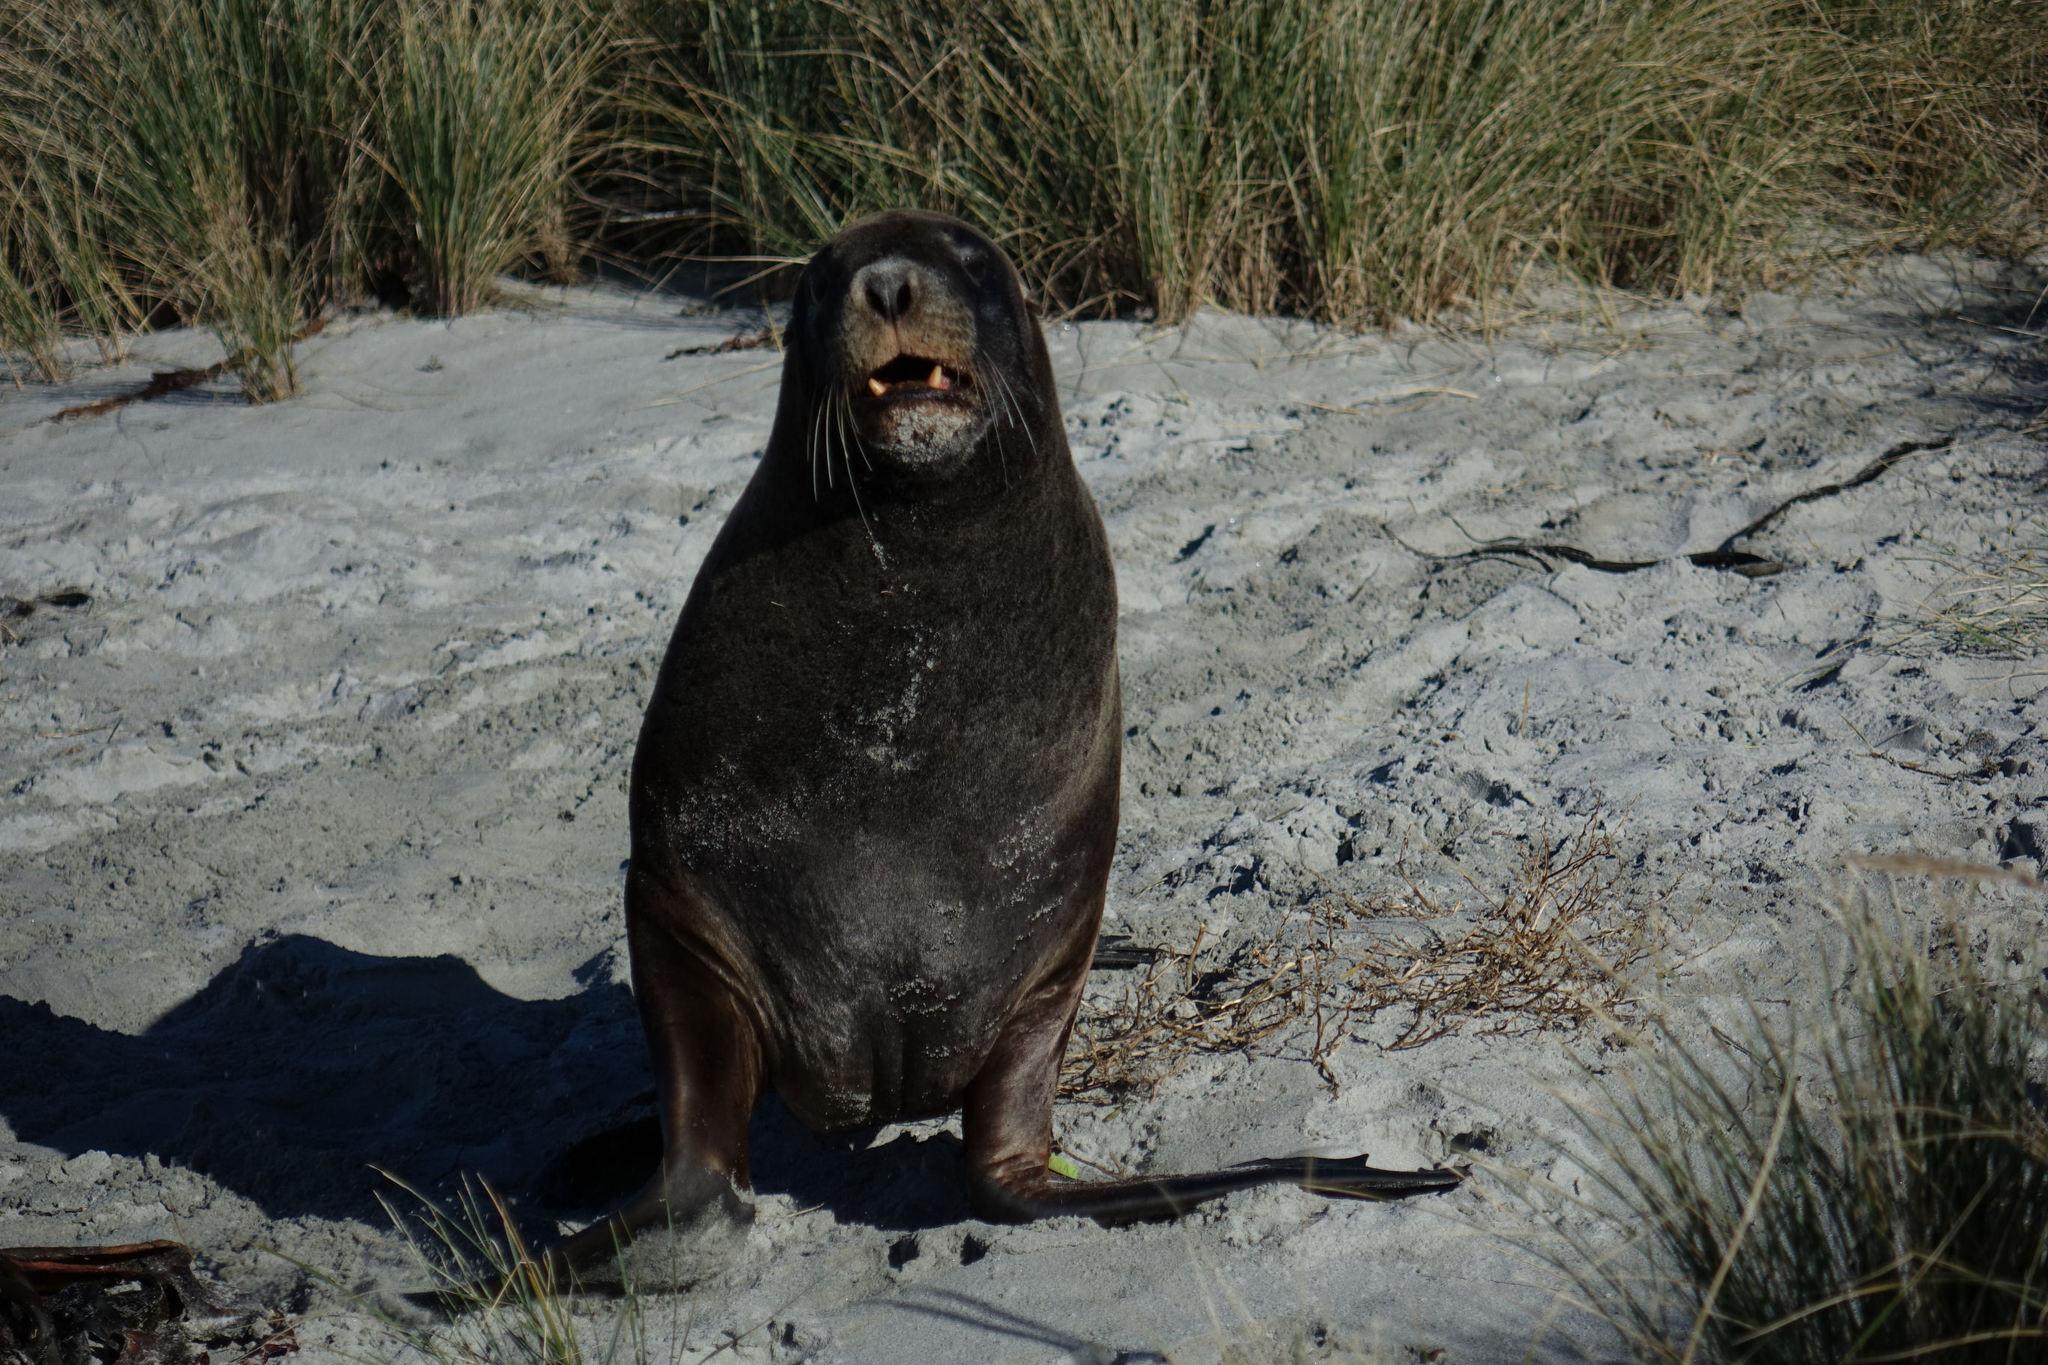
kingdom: Animalia
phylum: Chordata
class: Mammalia
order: Carnivora
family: Otariidae
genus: Phocarctos
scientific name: Phocarctos hookeri
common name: New zealand sea lion
